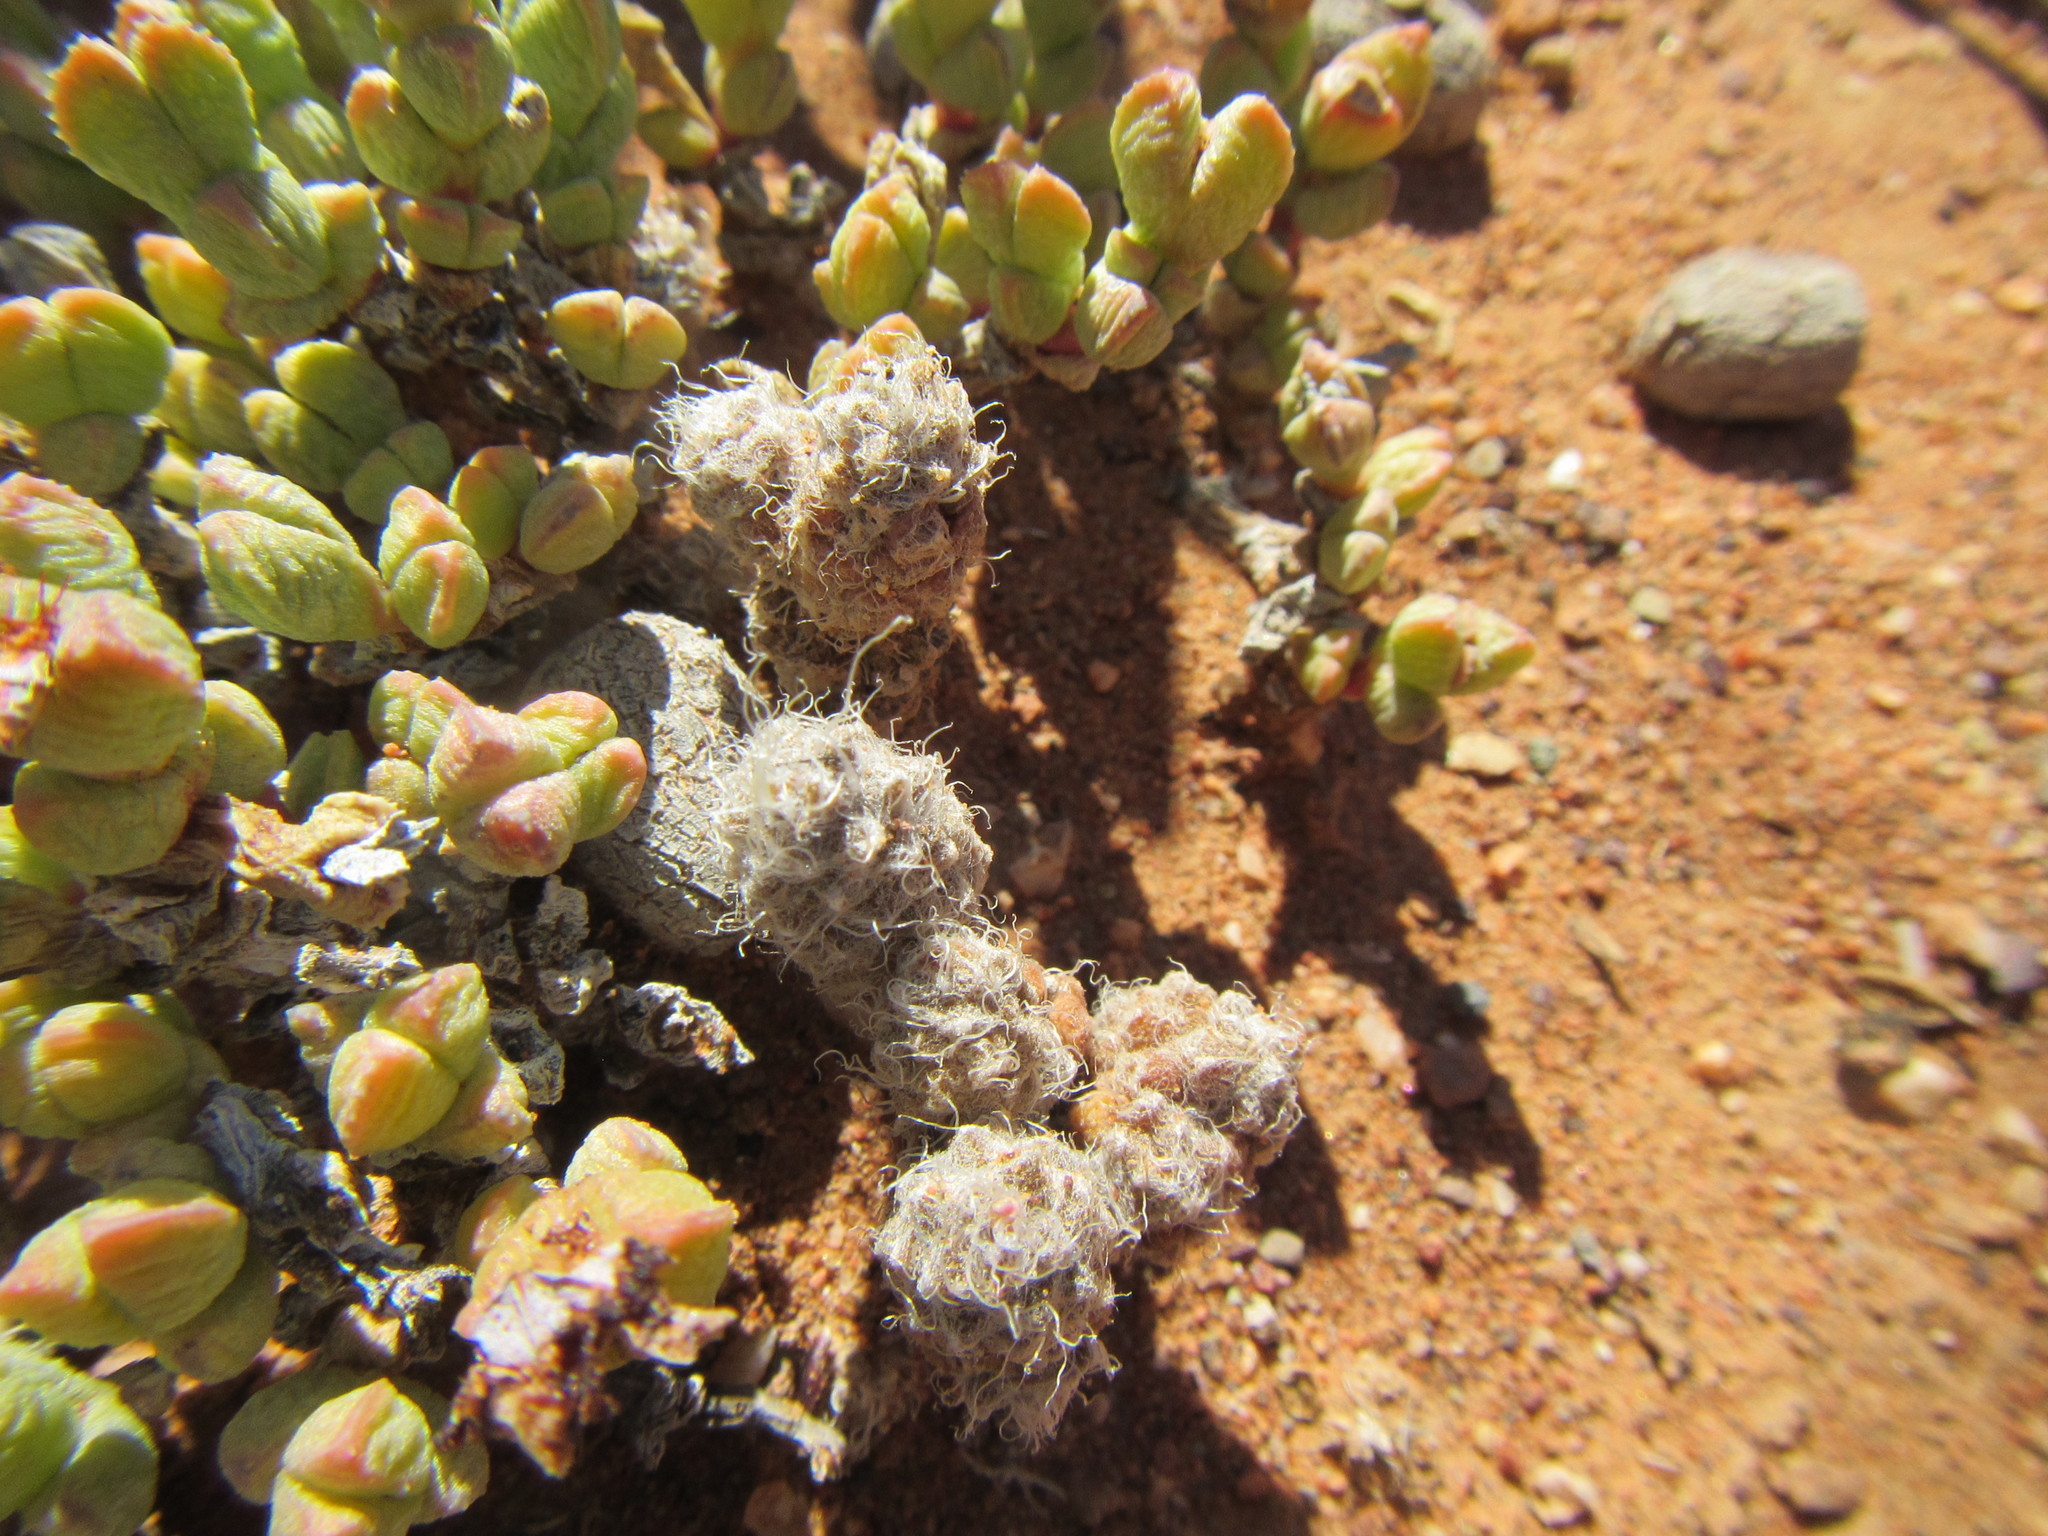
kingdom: Plantae
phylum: Tracheophyta
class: Magnoliopsida
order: Caryophyllales
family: Anacampserotaceae
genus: Anacampseros
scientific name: Anacampseros filamentosa
